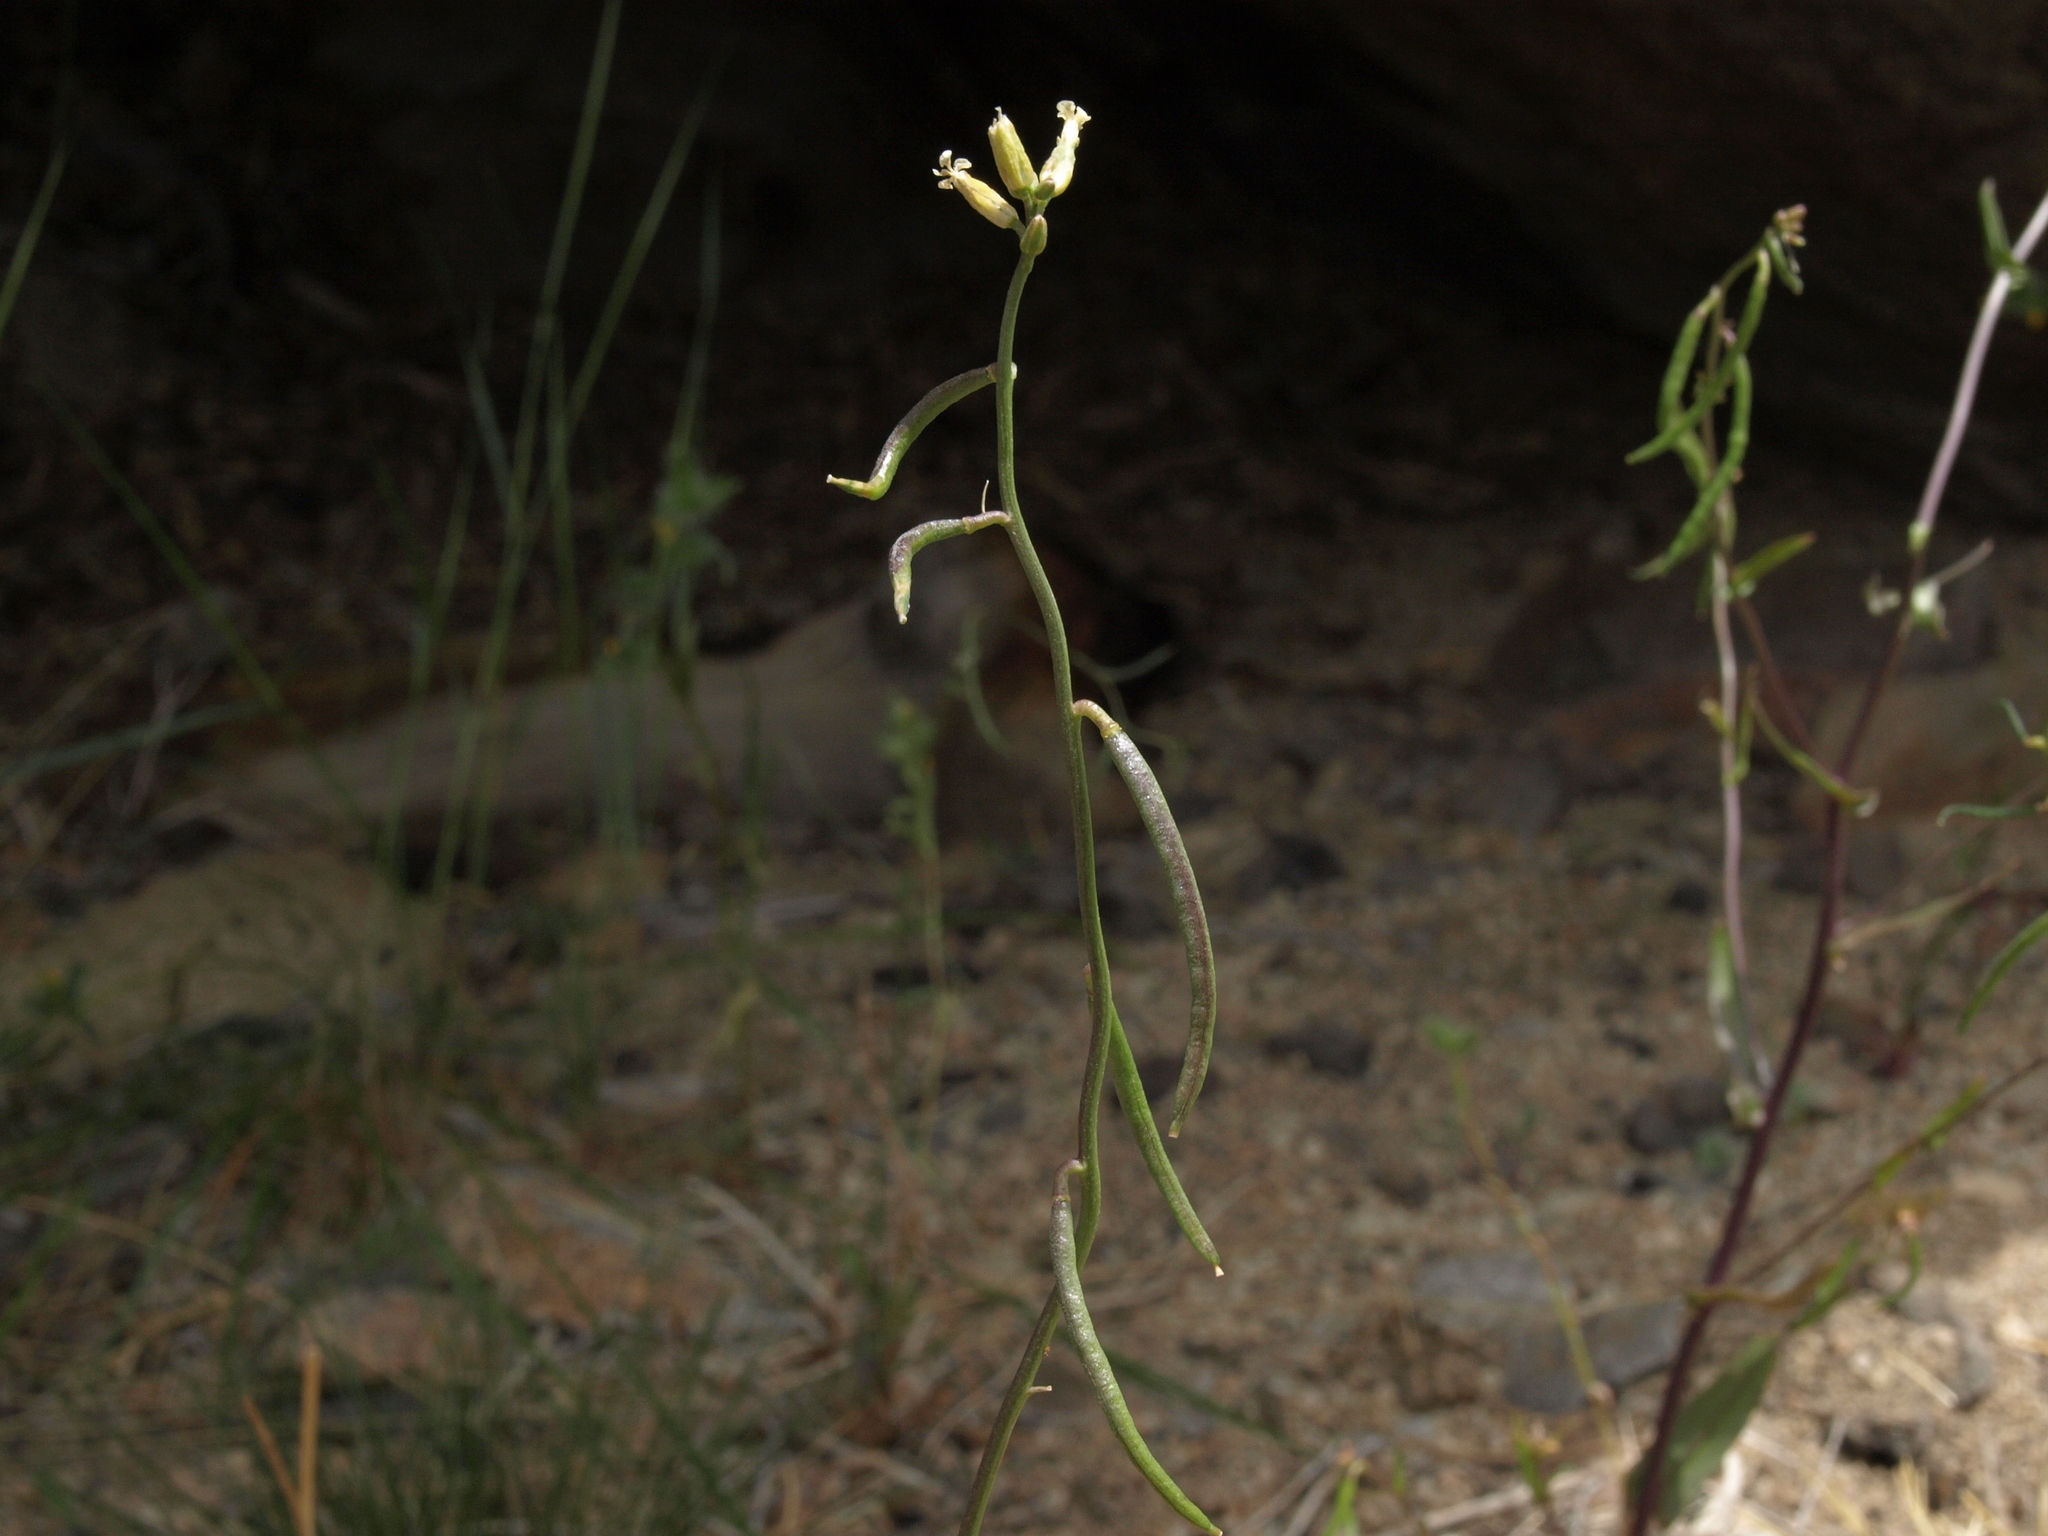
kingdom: Plantae
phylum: Tracheophyta
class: Magnoliopsida
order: Brassicales
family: Brassicaceae
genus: Streptanthus
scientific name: Streptanthus cooperi
